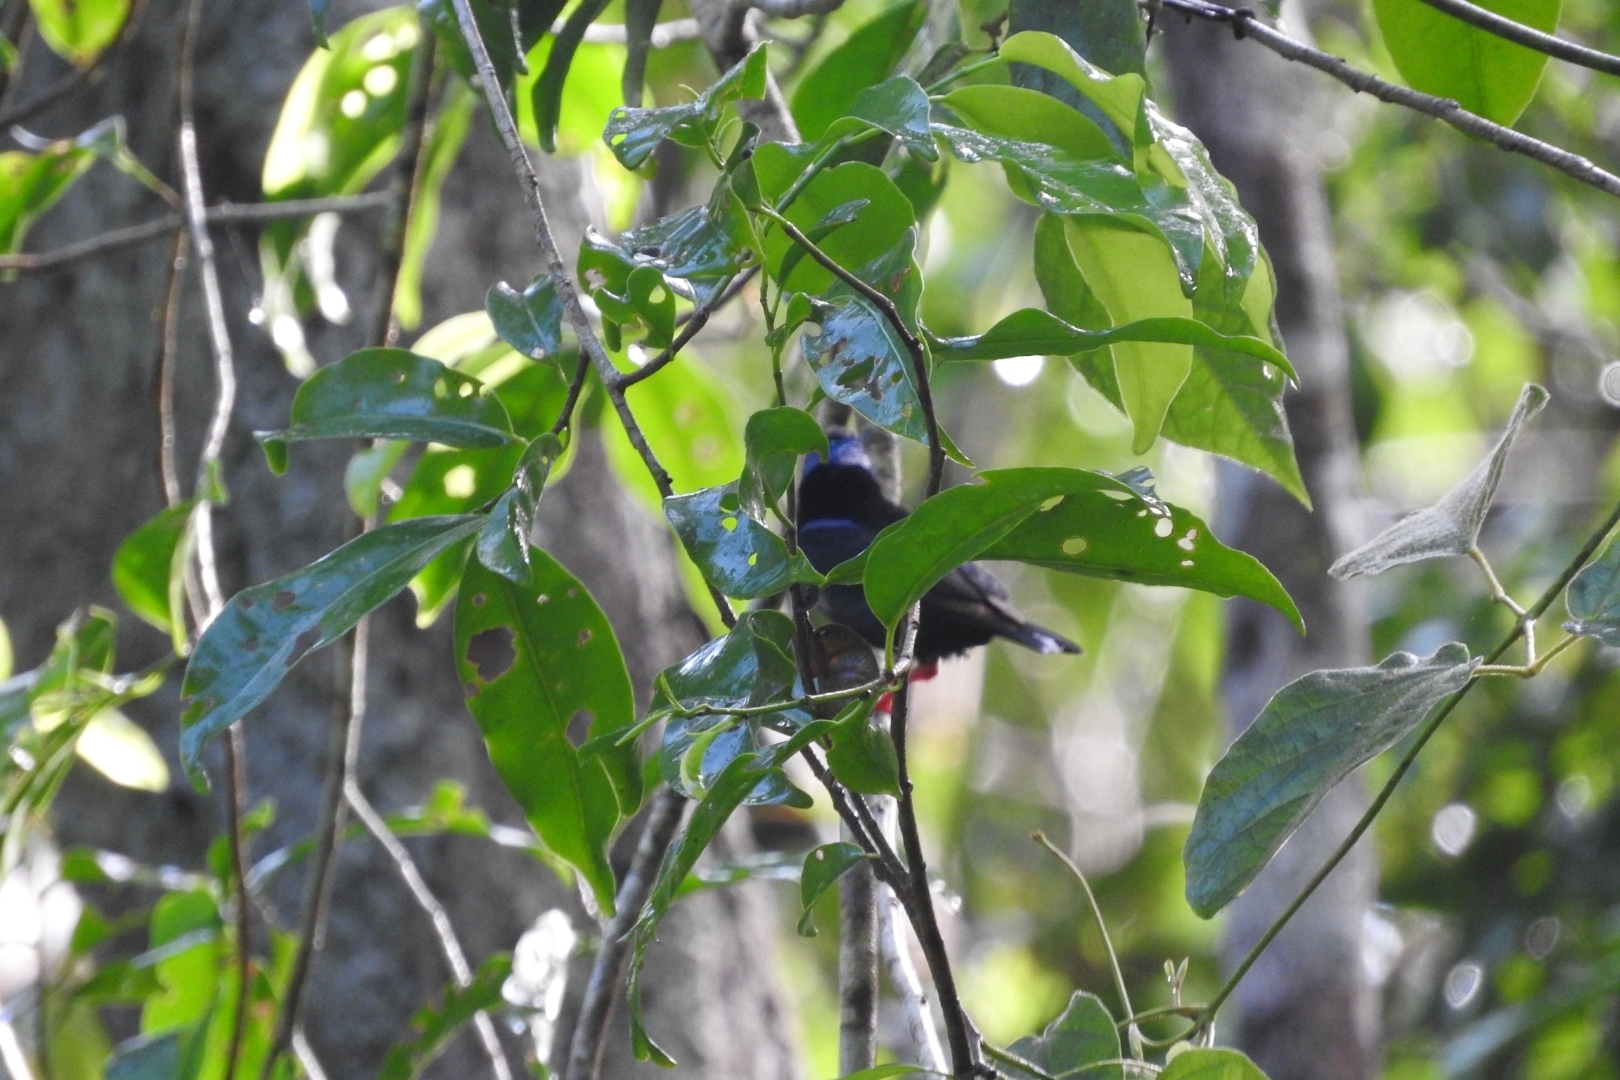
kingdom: Animalia
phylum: Chordata
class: Aves
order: Passeriformes
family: Thraupidae
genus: Cyanerpes
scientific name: Cyanerpes cyaneus
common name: Red-legged honeycreeper
